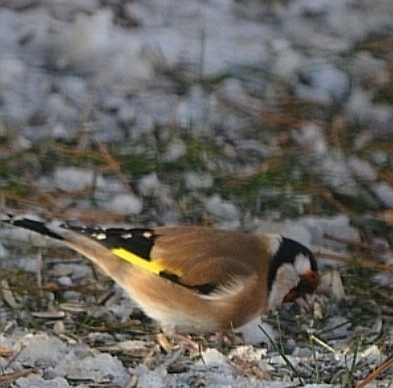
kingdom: Animalia
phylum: Chordata
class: Aves
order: Passeriformes
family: Fringillidae
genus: Carduelis
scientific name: Carduelis carduelis
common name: European goldfinch
